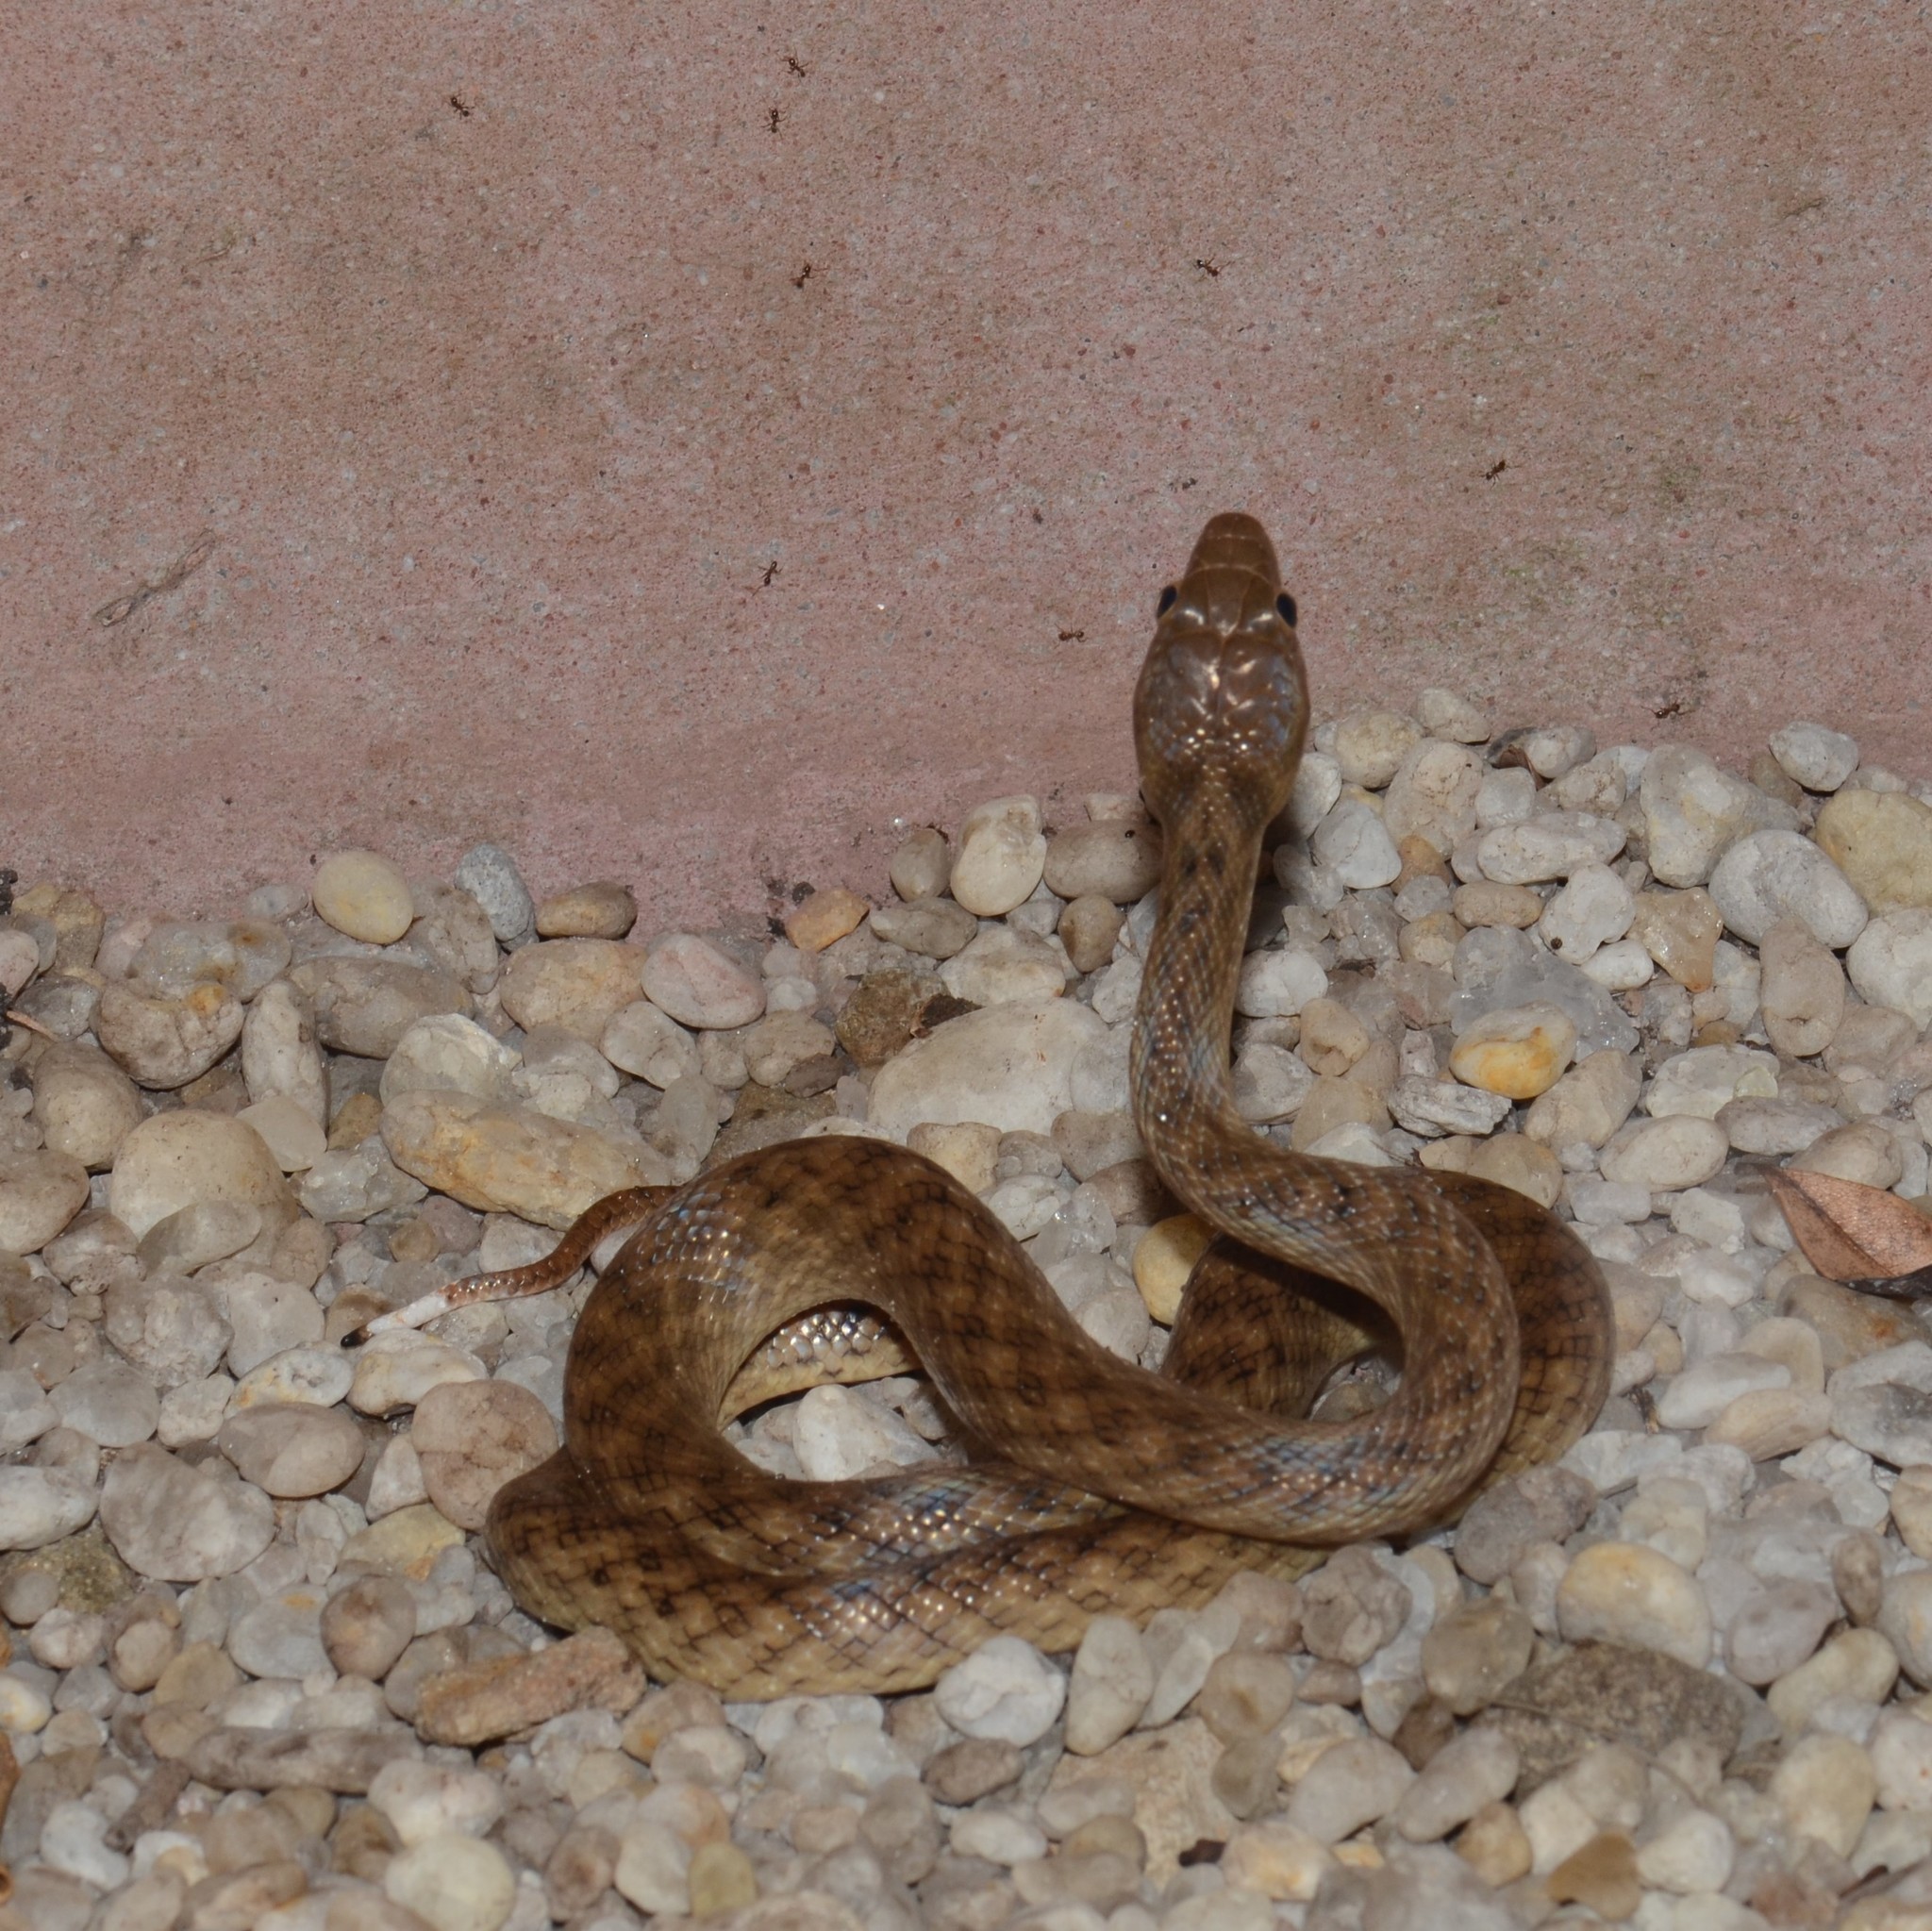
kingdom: Animalia
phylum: Chordata
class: Squamata
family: Pseudoxyrhophiidae
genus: Madagascarophis
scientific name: Madagascarophis colubrinus
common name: Madagascar night snake
